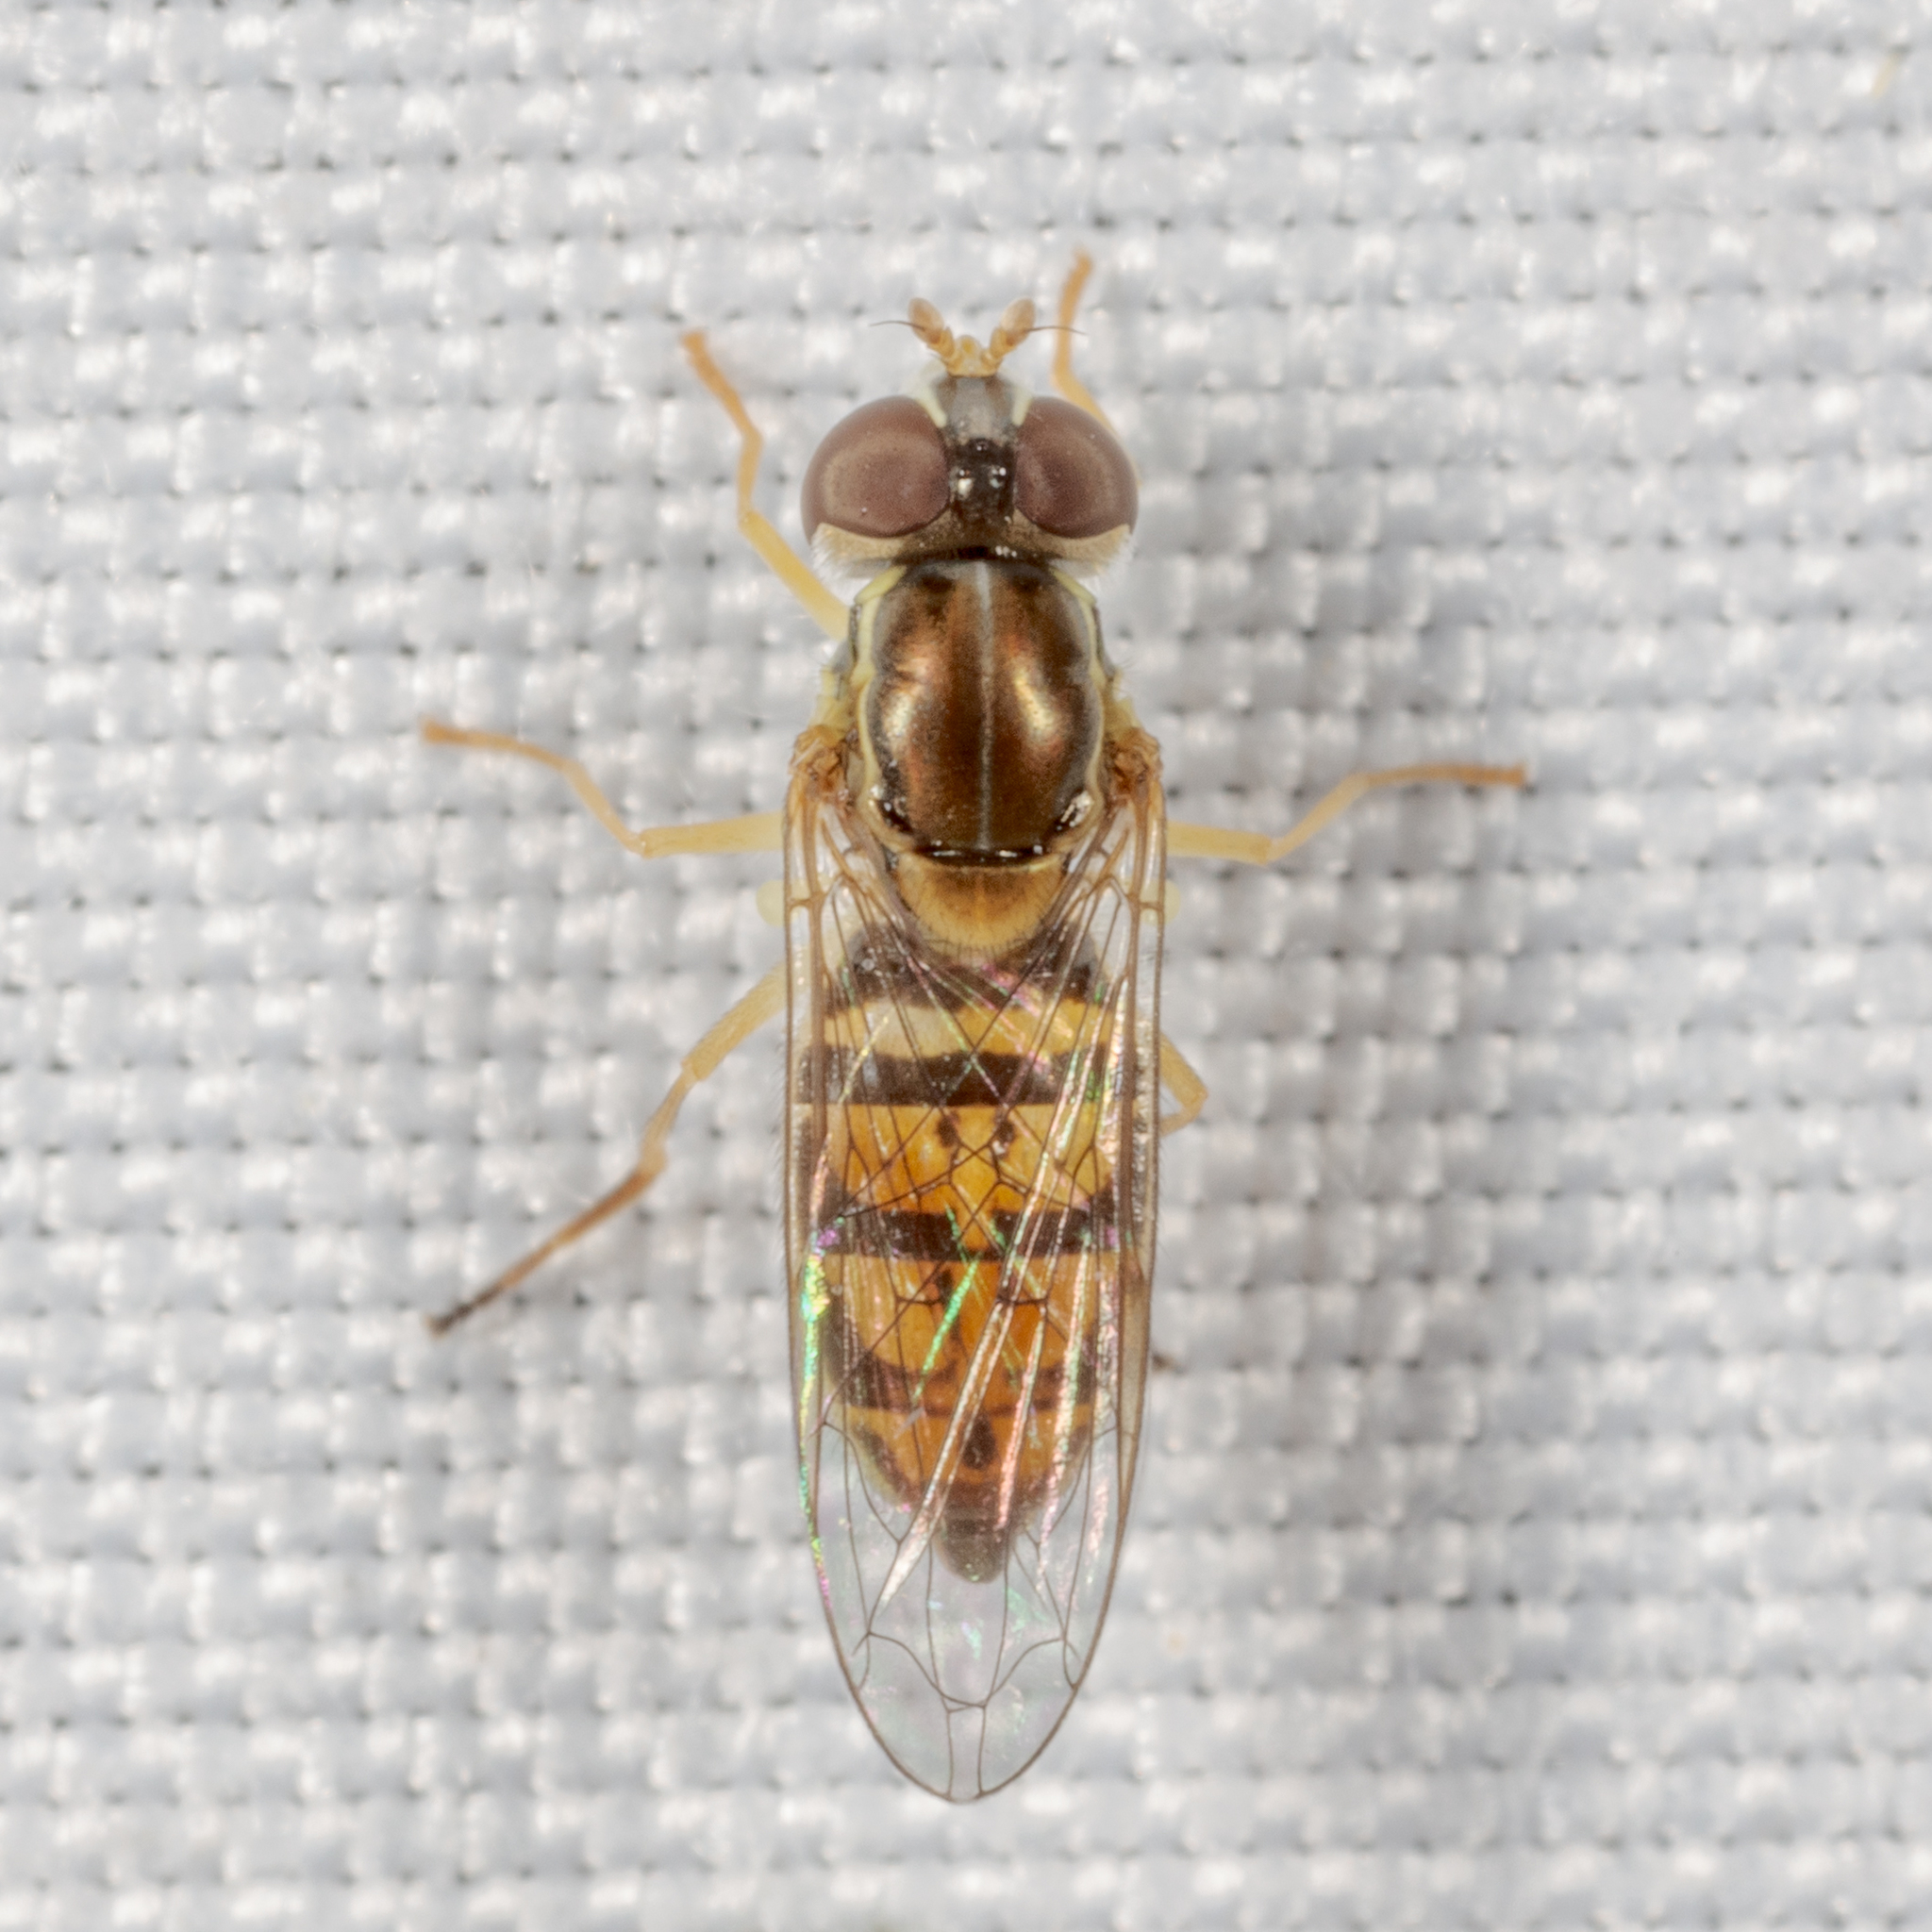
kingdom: Animalia
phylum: Arthropoda
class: Insecta
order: Diptera
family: Syrphidae
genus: Toxomerus
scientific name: Toxomerus marginatus
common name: Syrphid fly
